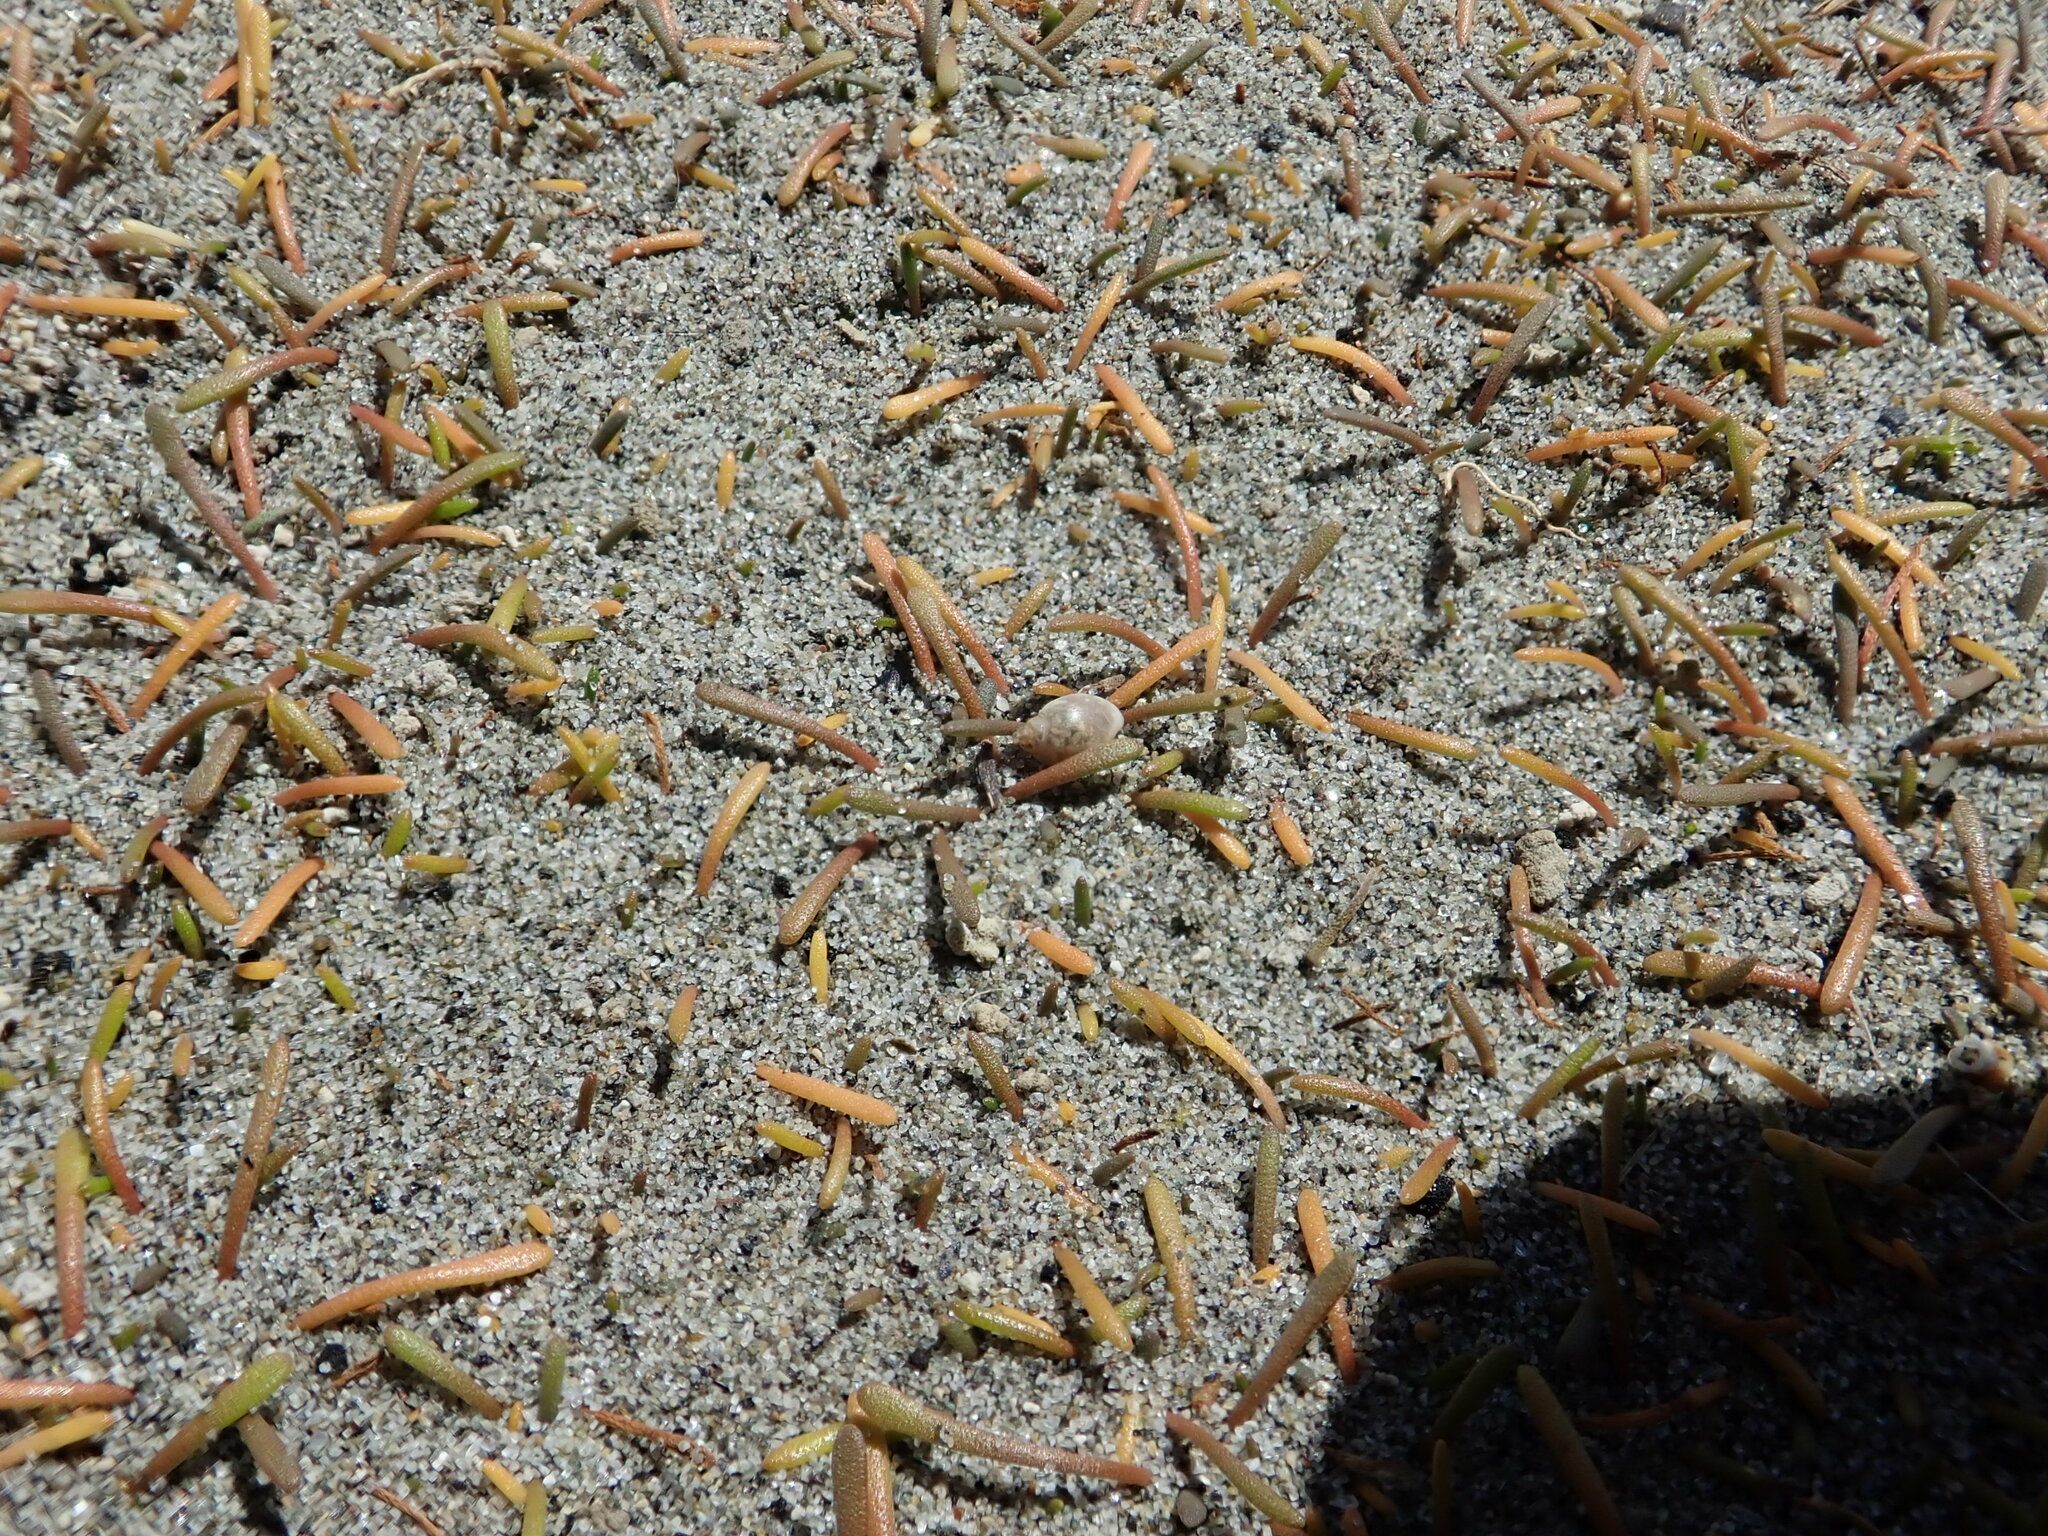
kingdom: Animalia
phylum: Mollusca
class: Gastropoda
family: Physidae
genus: Physella
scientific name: Physella acuta
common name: European physa
